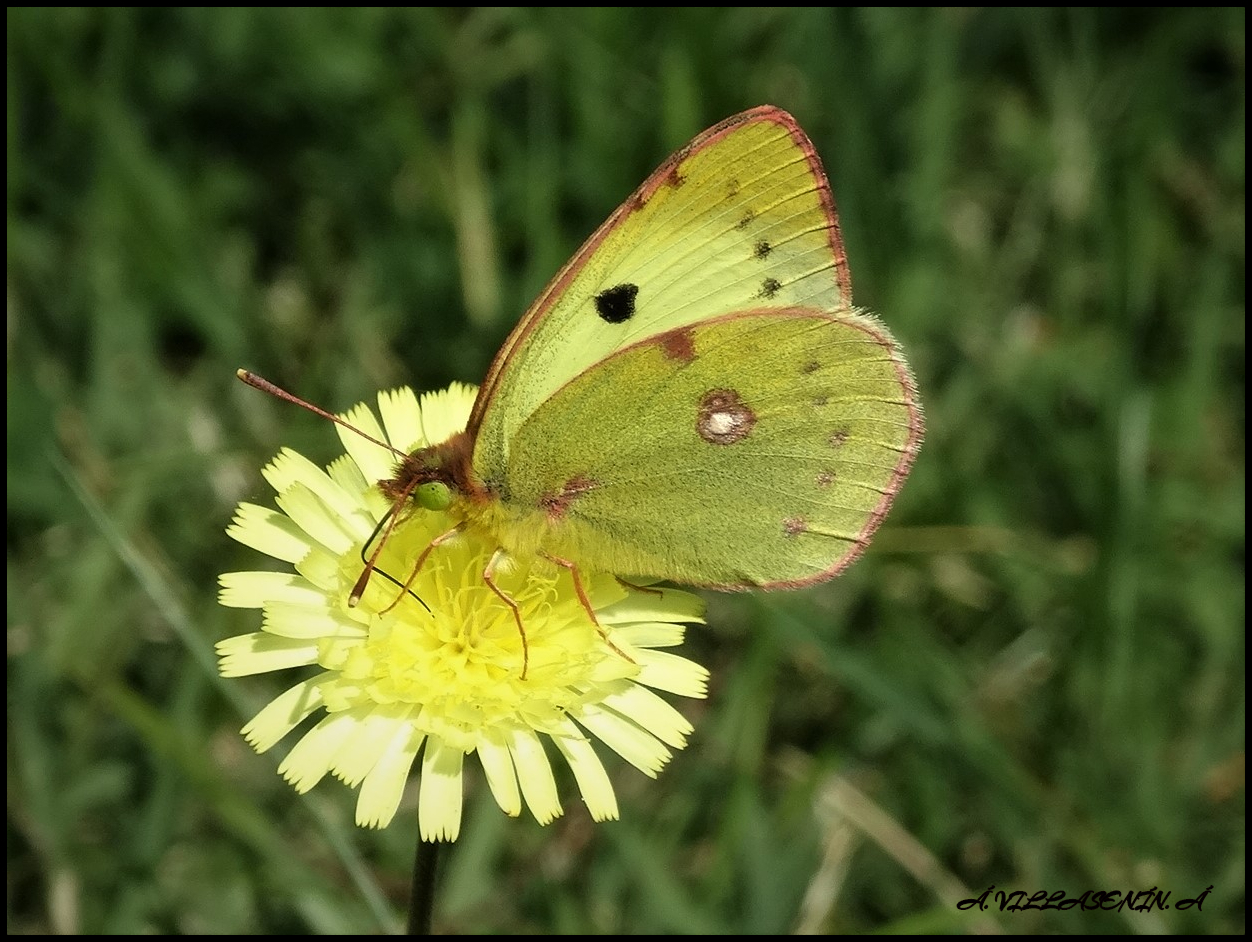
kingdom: Animalia
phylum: Arthropoda
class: Insecta
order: Lepidoptera
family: Pieridae
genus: Colias
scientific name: Colias alfacariensis
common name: Berger's clouded yellow
